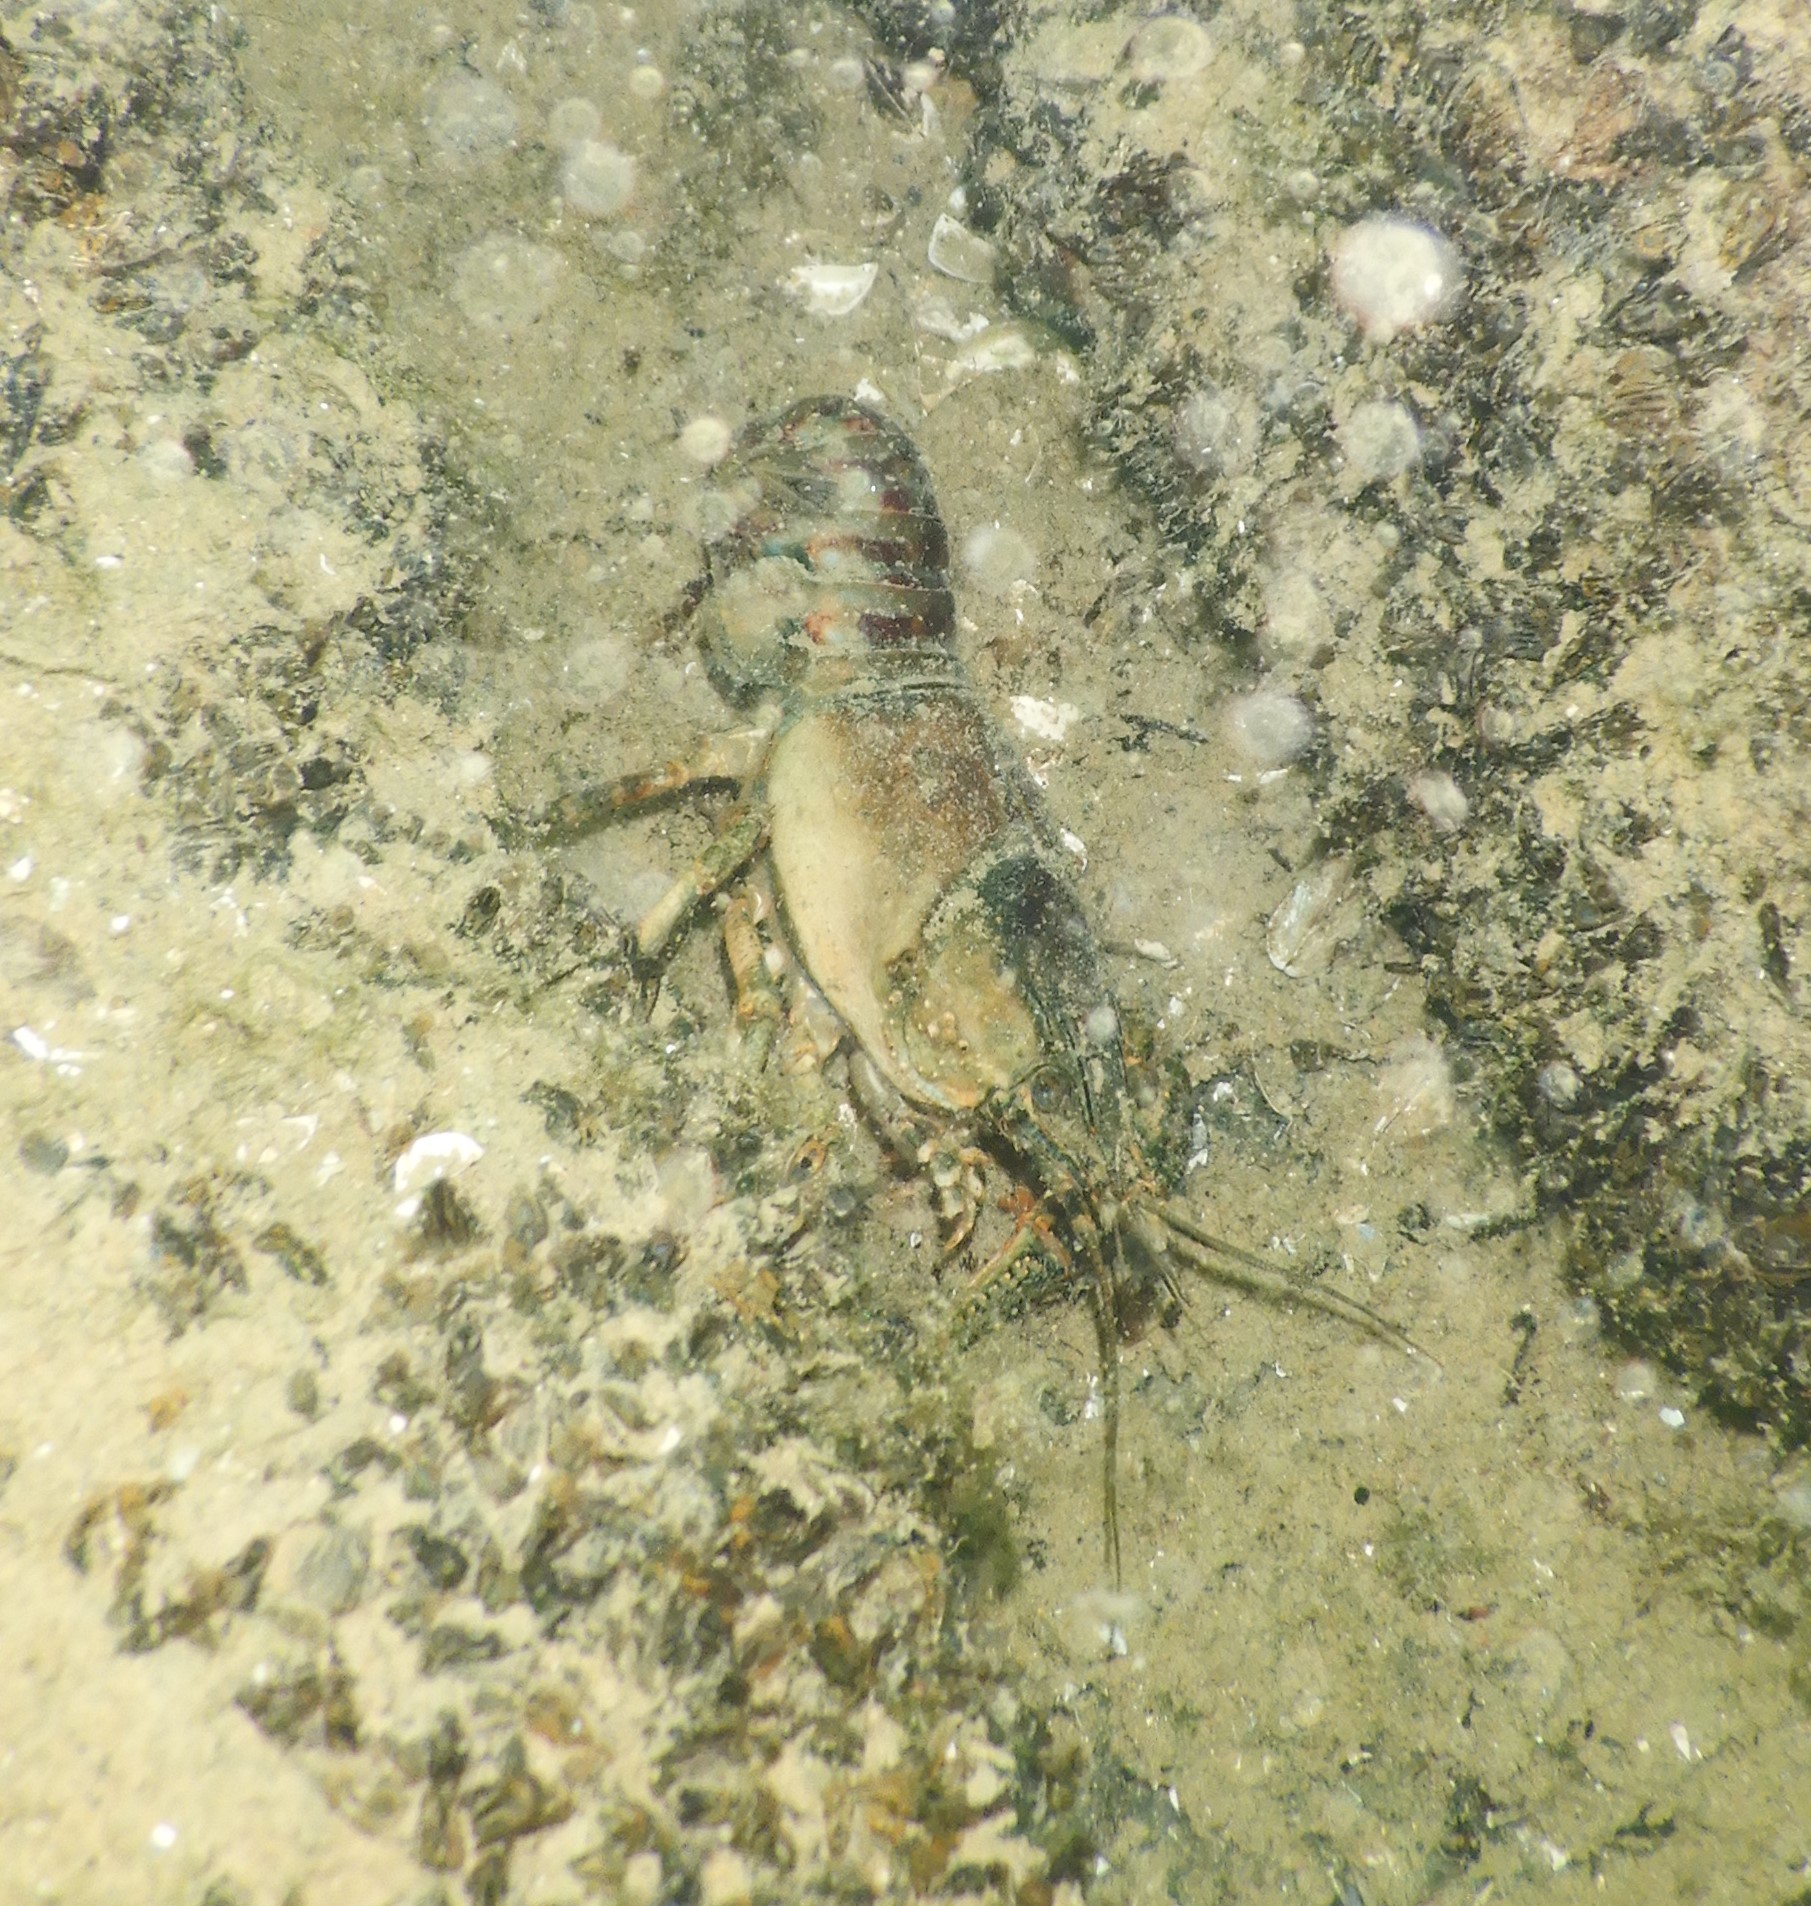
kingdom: Animalia
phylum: Arthropoda
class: Malacostraca
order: Decapoda
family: Cambaridae
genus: Faxonius
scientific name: Faxonius limosus
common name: American crayfish
